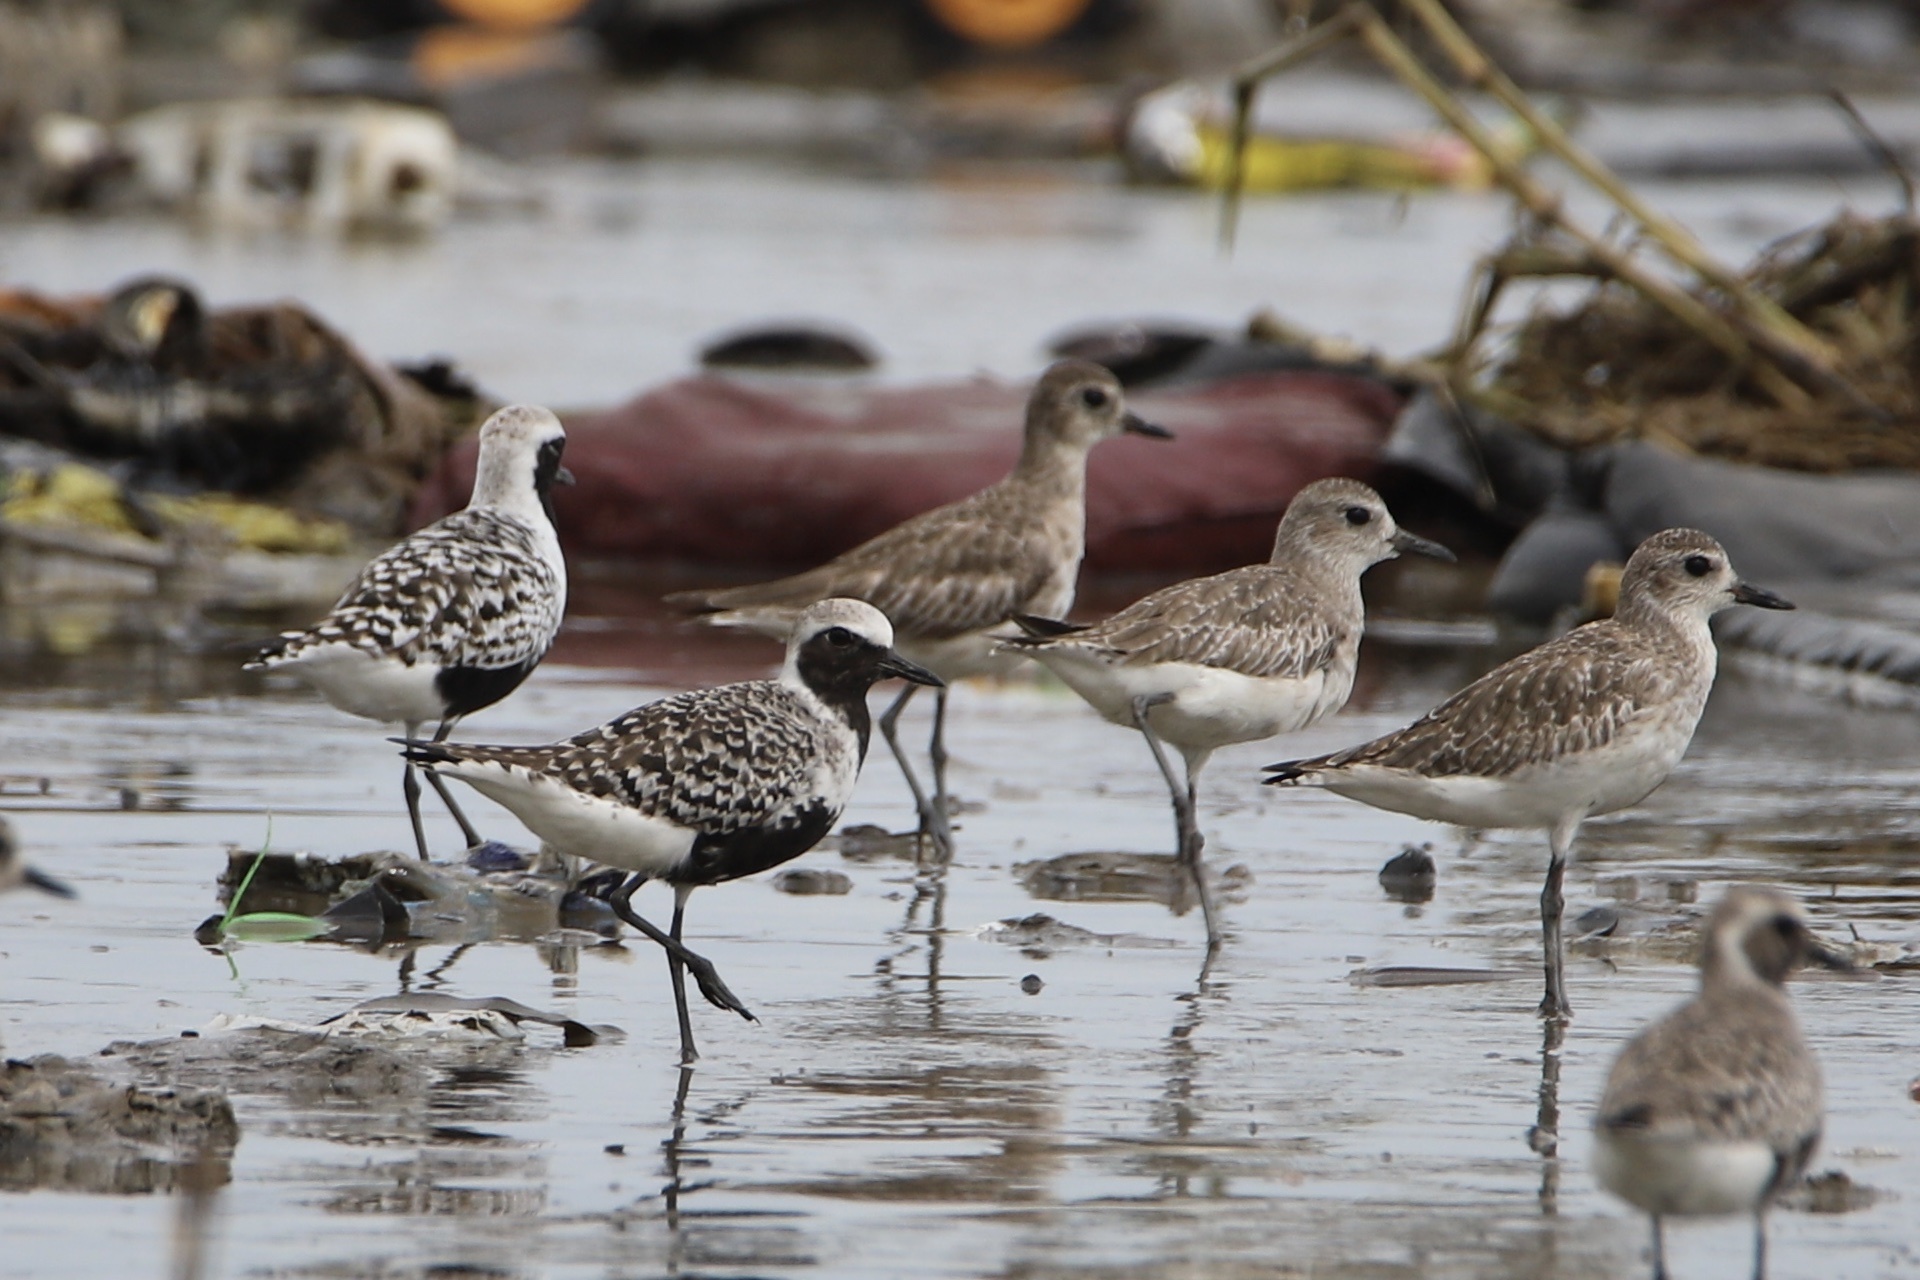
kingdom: Animalia
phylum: Chordata
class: Aves
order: Charadriiformes
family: Charadriidae
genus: Pluvialis
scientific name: Pluvialis squatarola
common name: Grey plover
